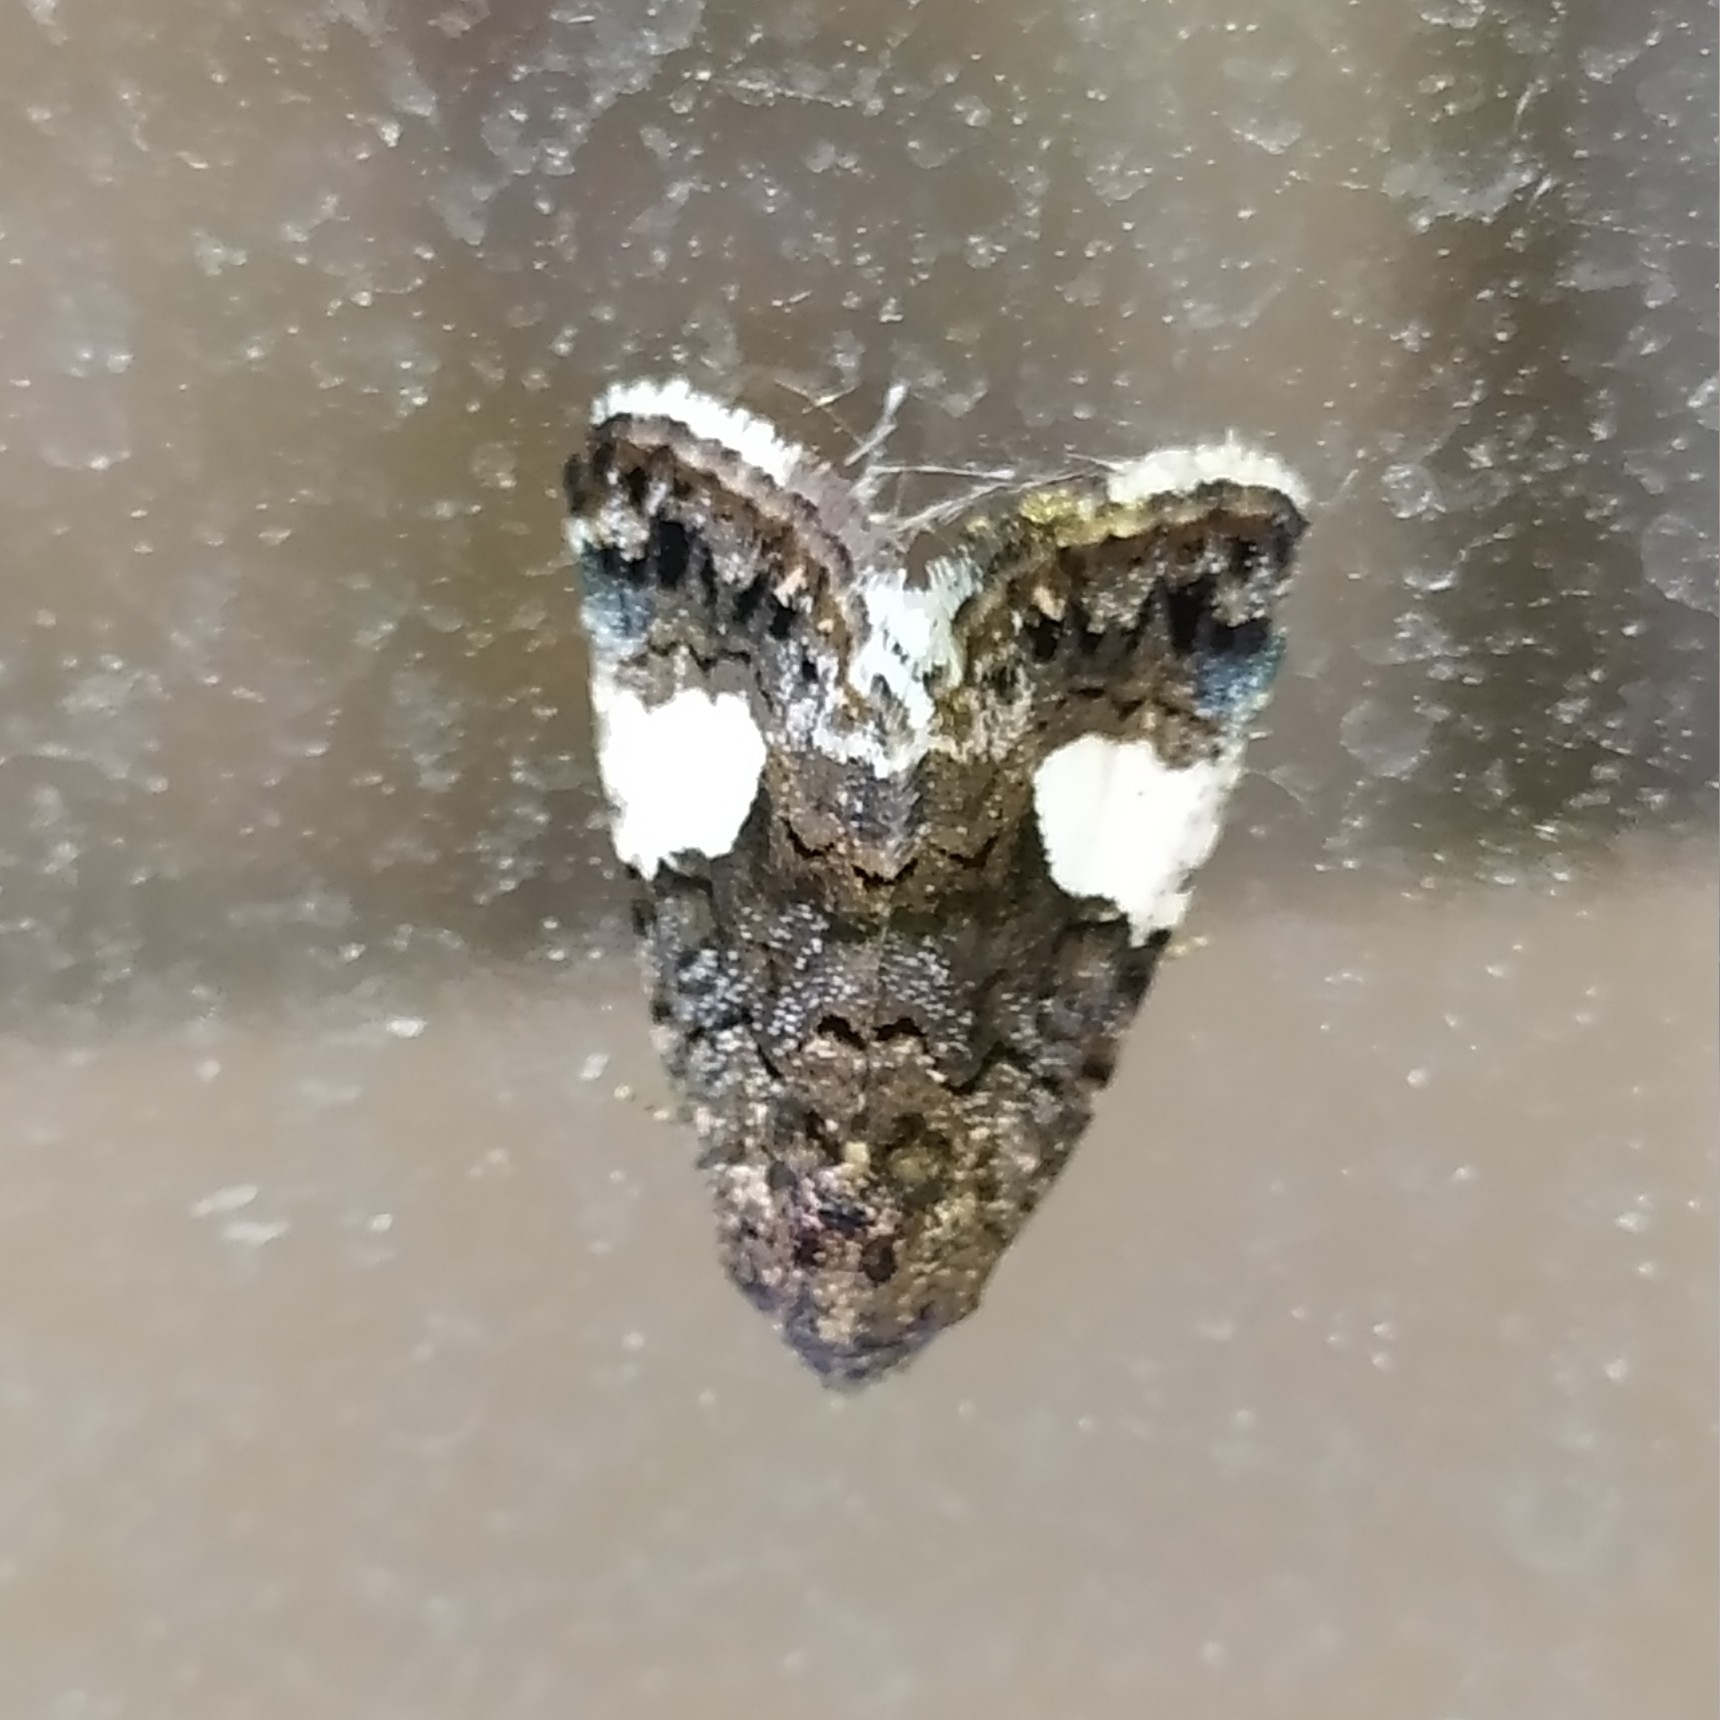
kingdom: Animalia
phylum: Arthropoda
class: Insecta
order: Lepidoptera
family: Erebidae
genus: Tyta
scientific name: Tyta luctuosa
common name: Four-spotted
